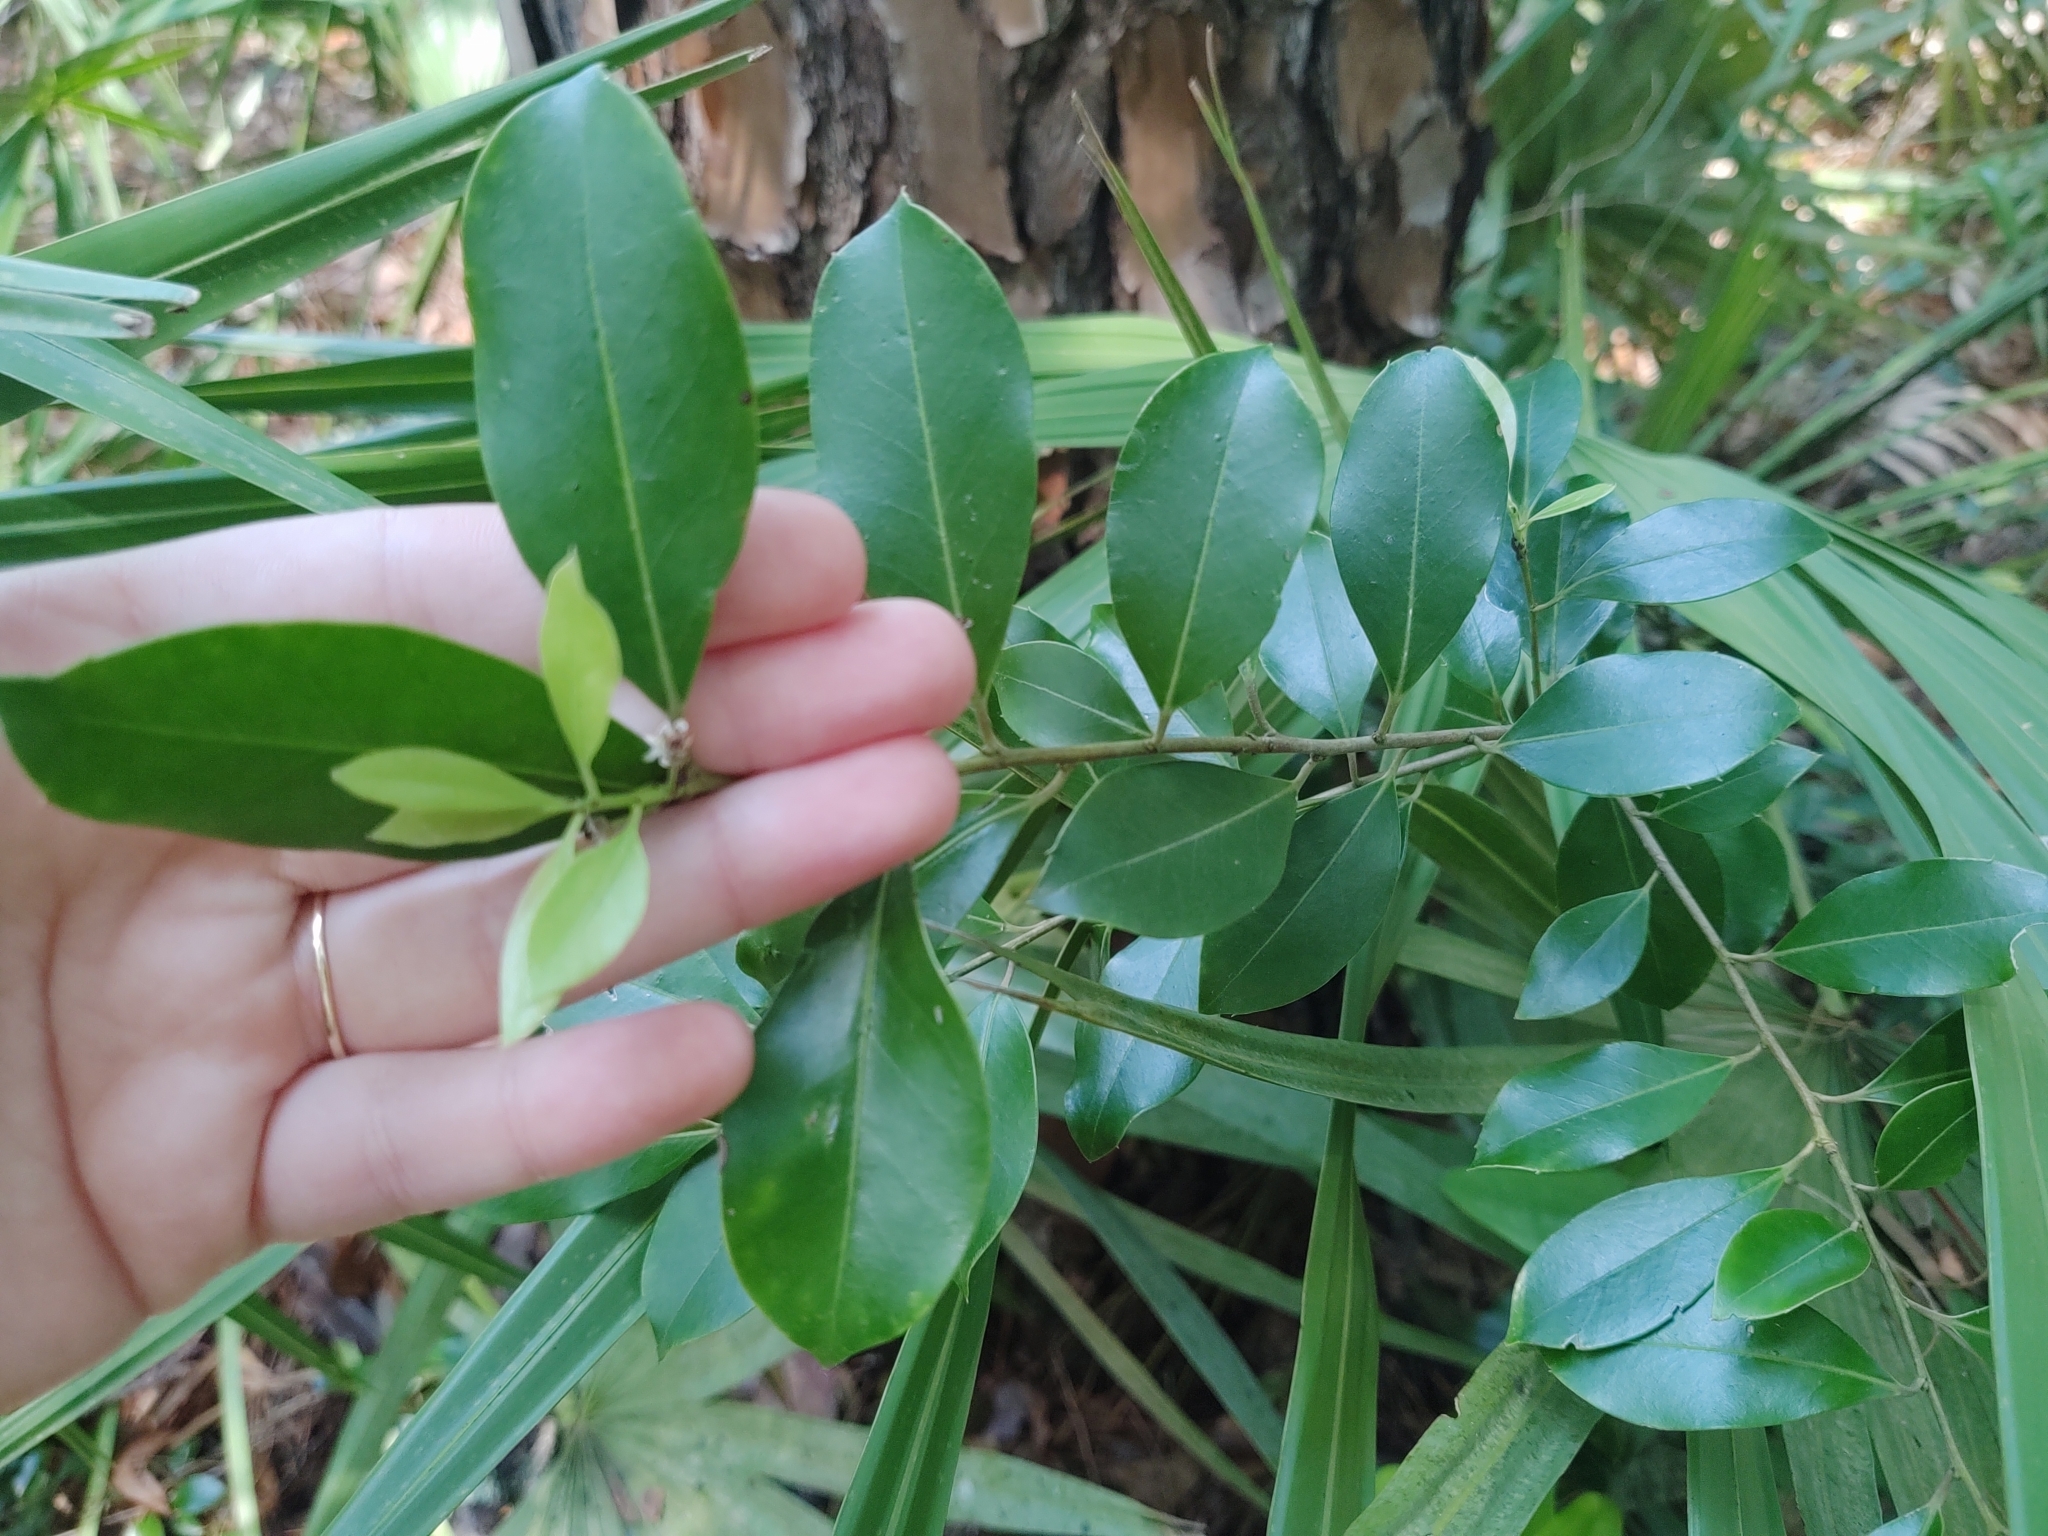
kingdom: Plantae
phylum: Tracheophyta
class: Magnoliopsida
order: Aquifoliales
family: Aquifoliaceae
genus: Ilex
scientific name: Ilex cassine
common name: Dahoon
